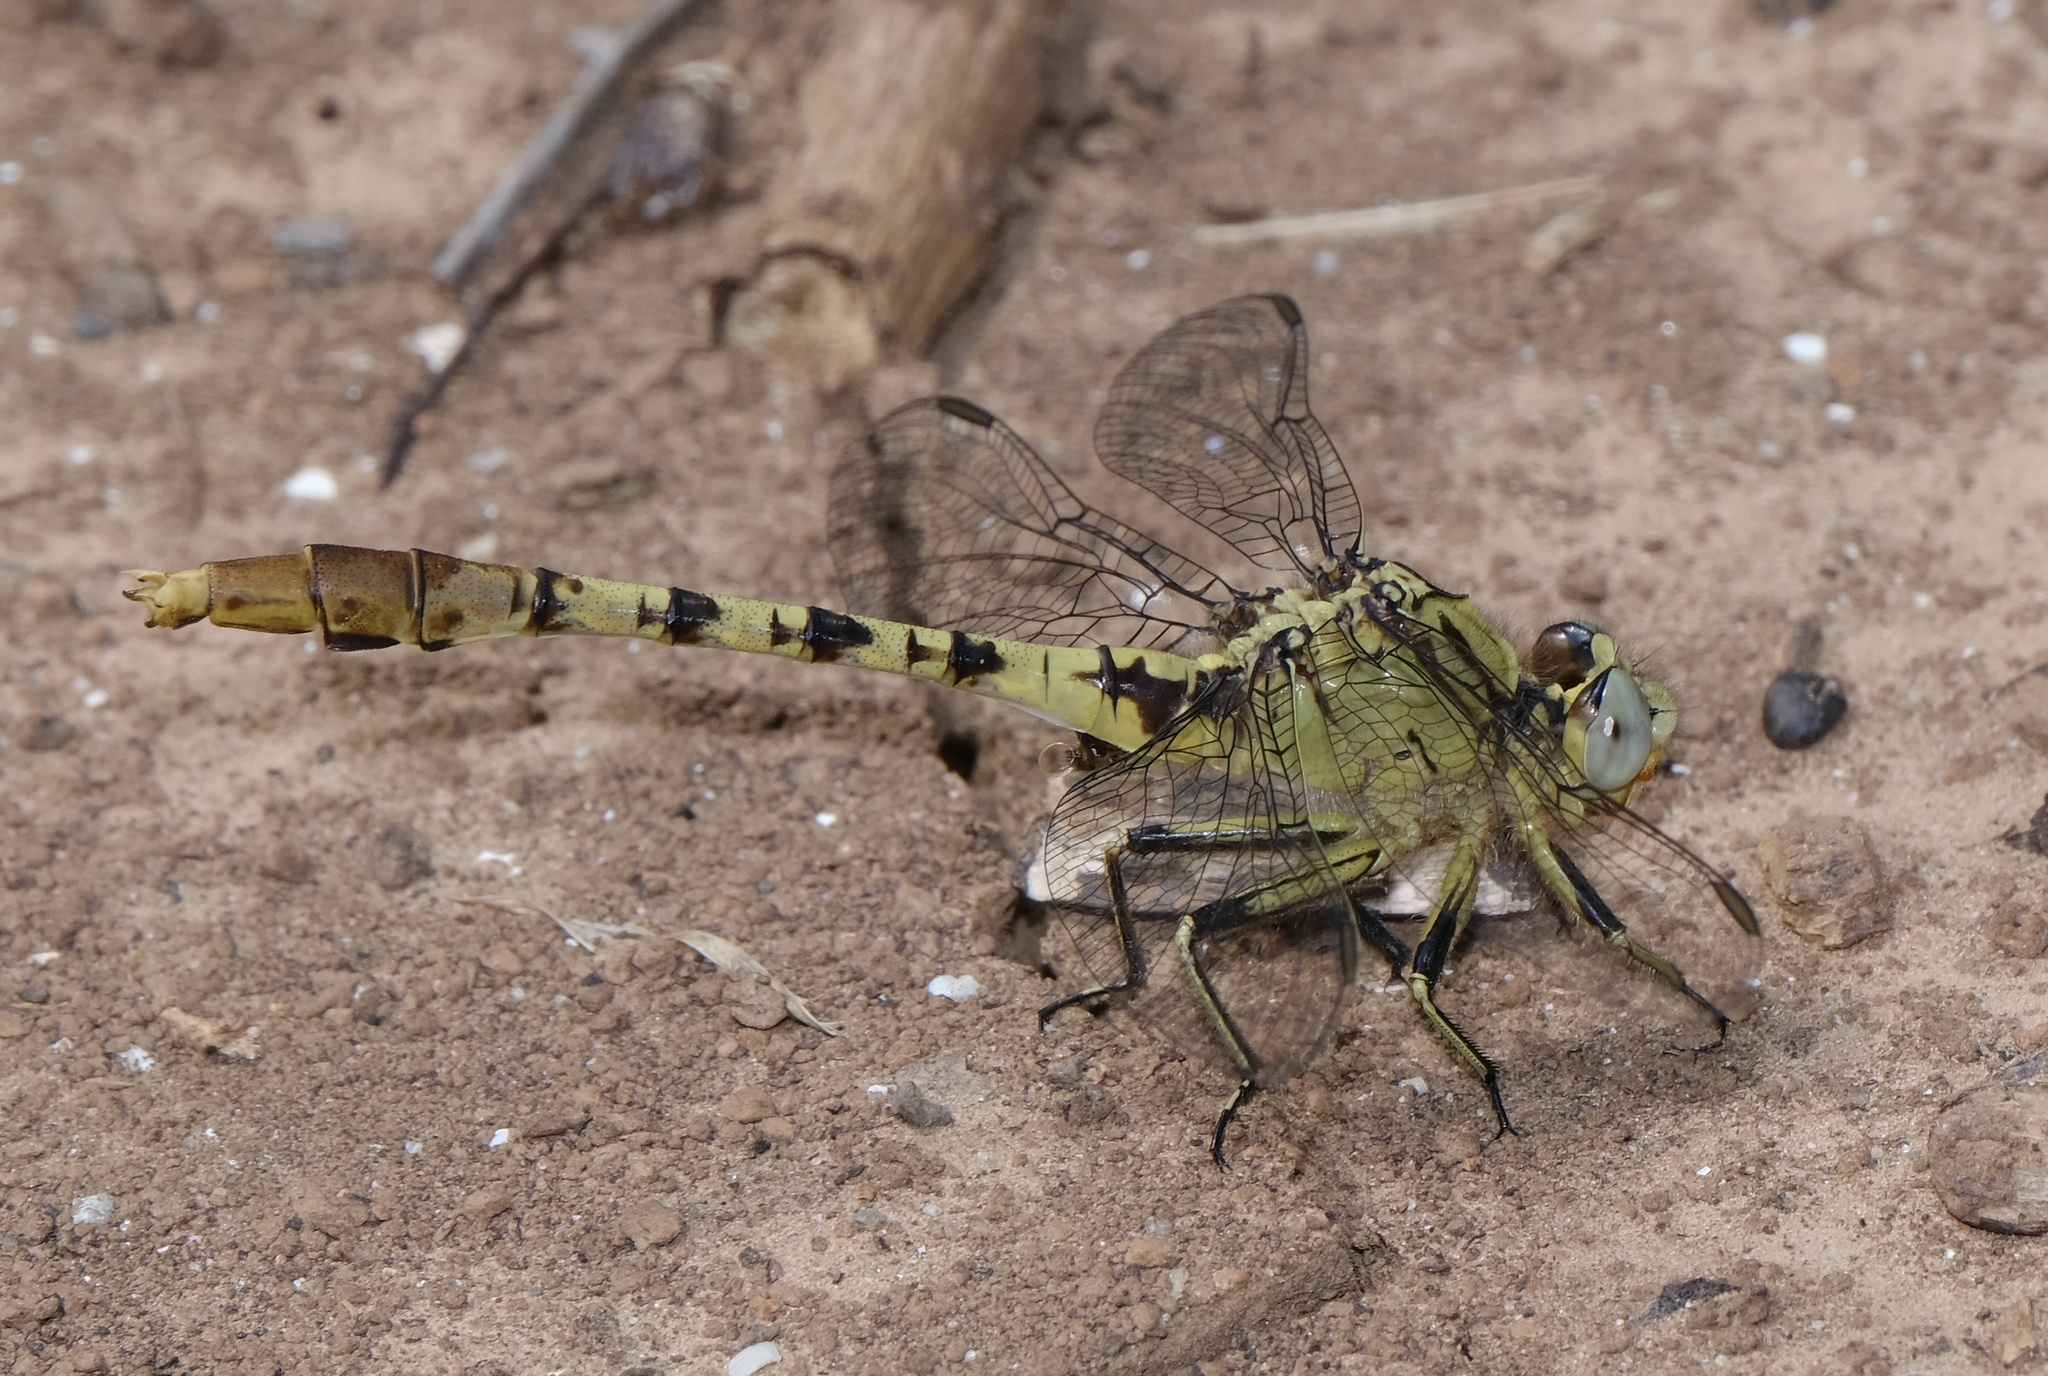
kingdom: Animalia
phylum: Arthropoda
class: Insecta
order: Odonata
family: Gomphidae
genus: Arigomphus
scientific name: Arigomphus submedianus
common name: Jade clubtail
